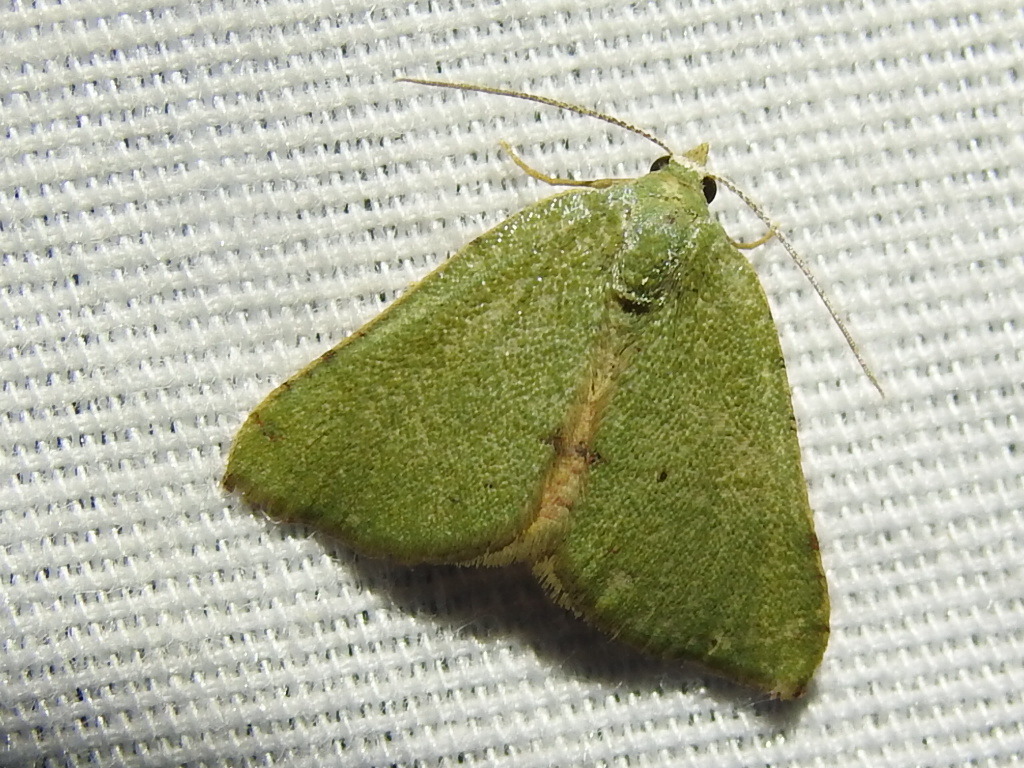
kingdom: Animalia
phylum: Arthropoda
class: Insecta
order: Lepidoptera
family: Geometridae
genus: Chloraspilates
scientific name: Chloraspilates bicoloraria
